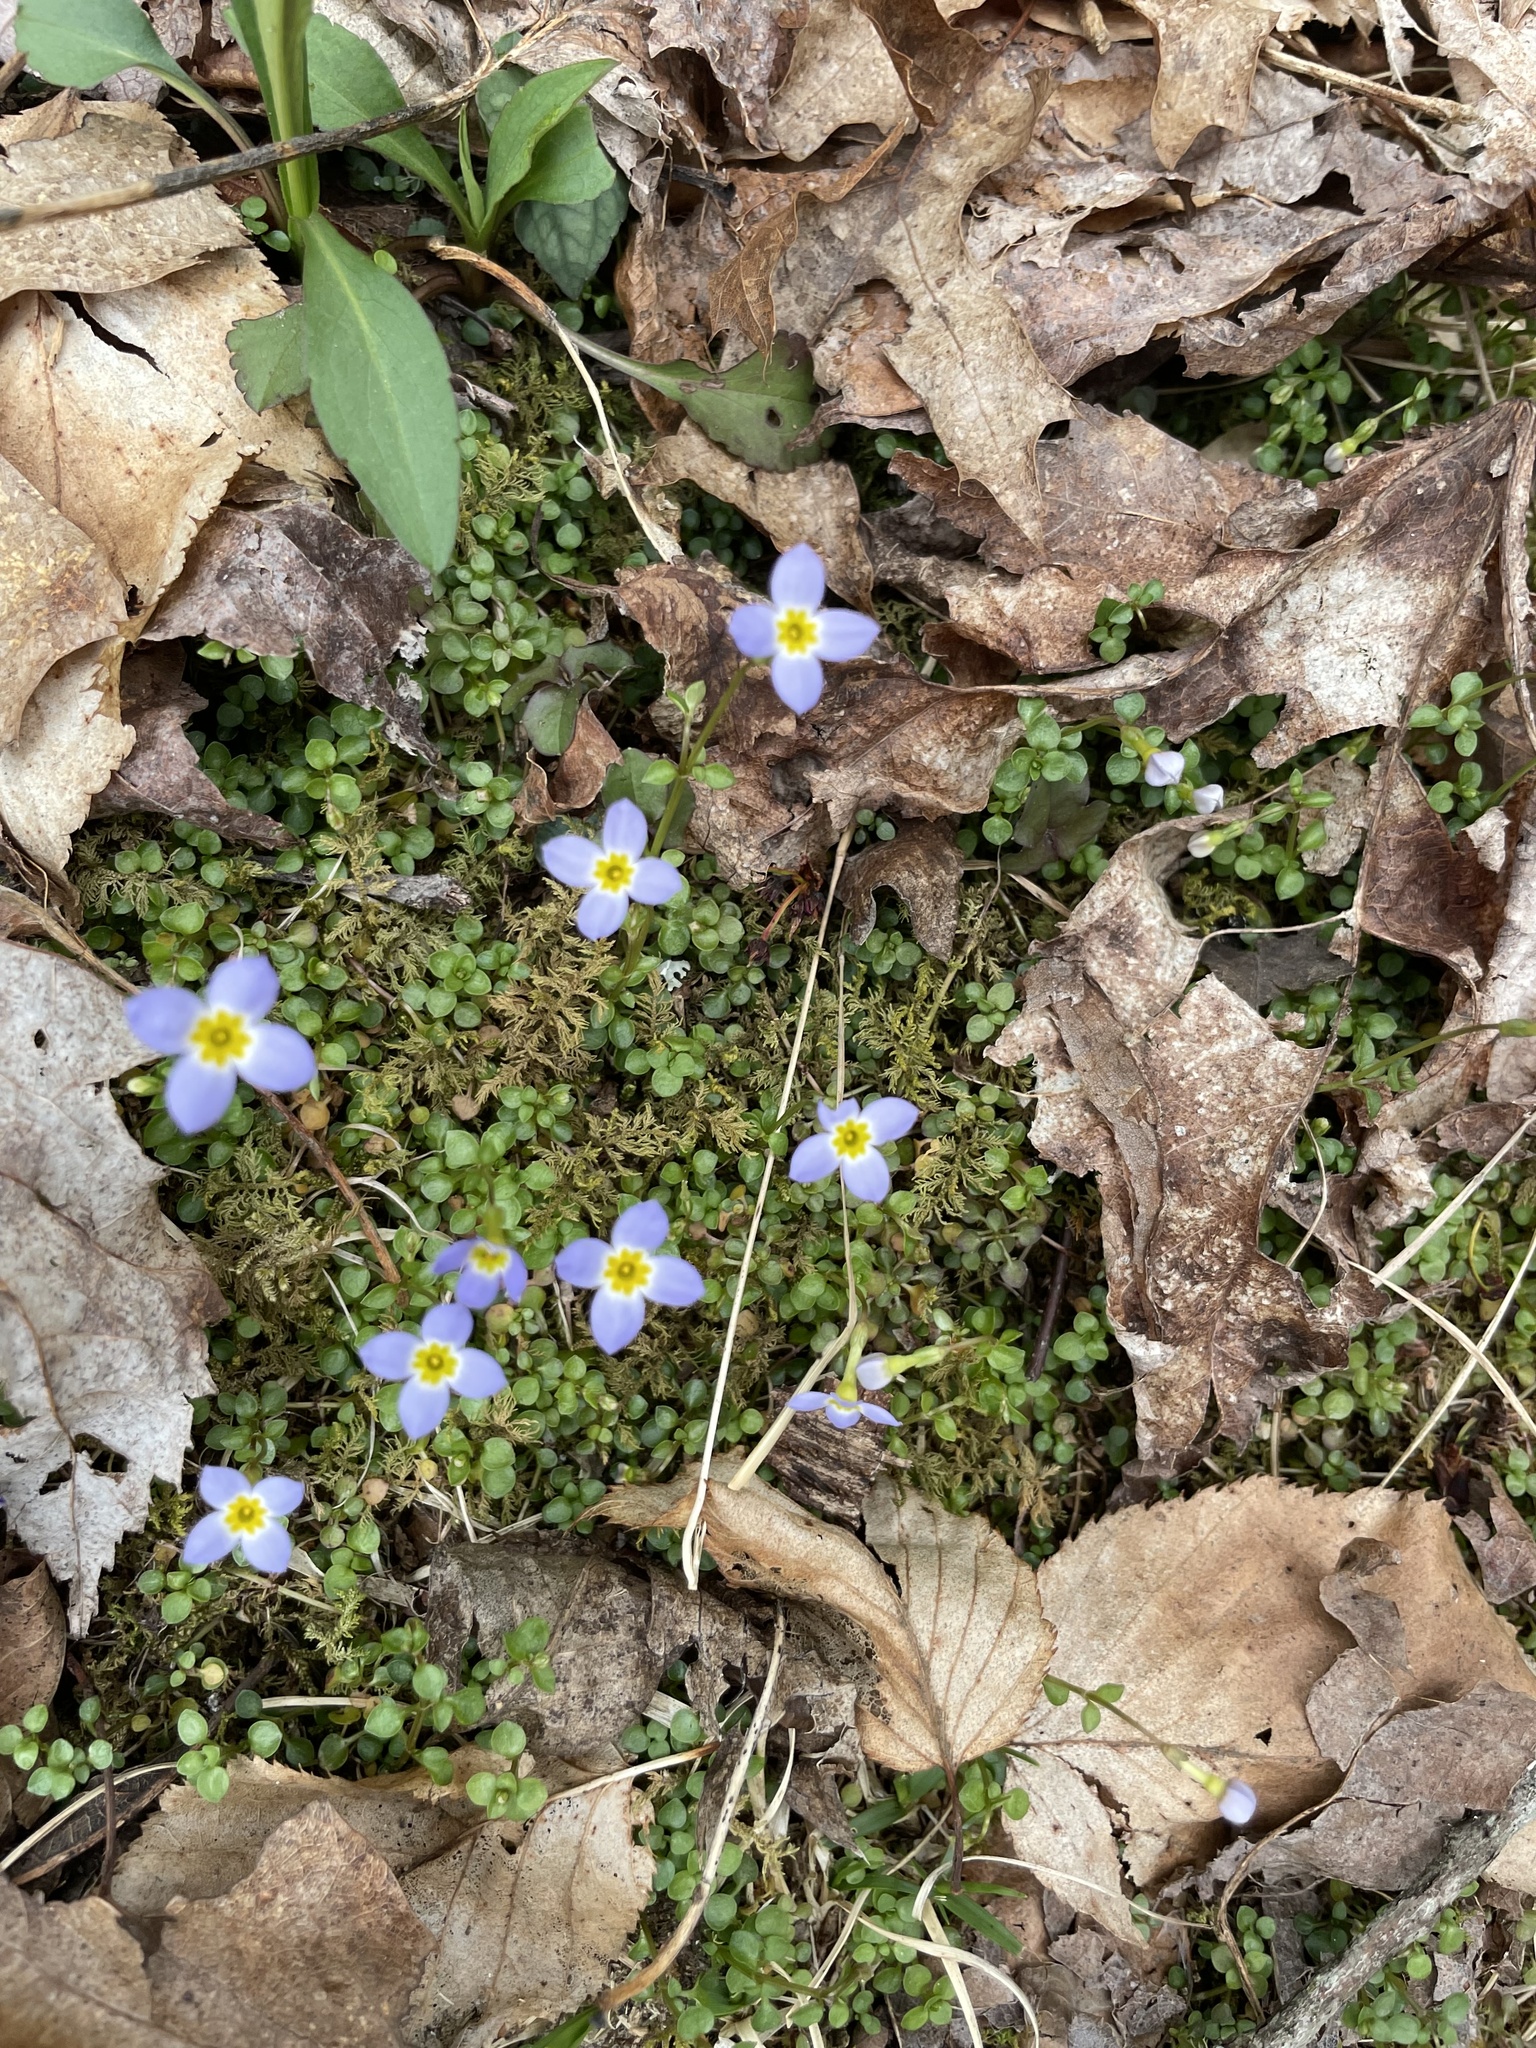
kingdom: Plantae
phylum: Tracheophyta
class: Magnoliopsida
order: Gentianales
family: Rubiaceae
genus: Houstonia
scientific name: Houstonia serpyllifolia
